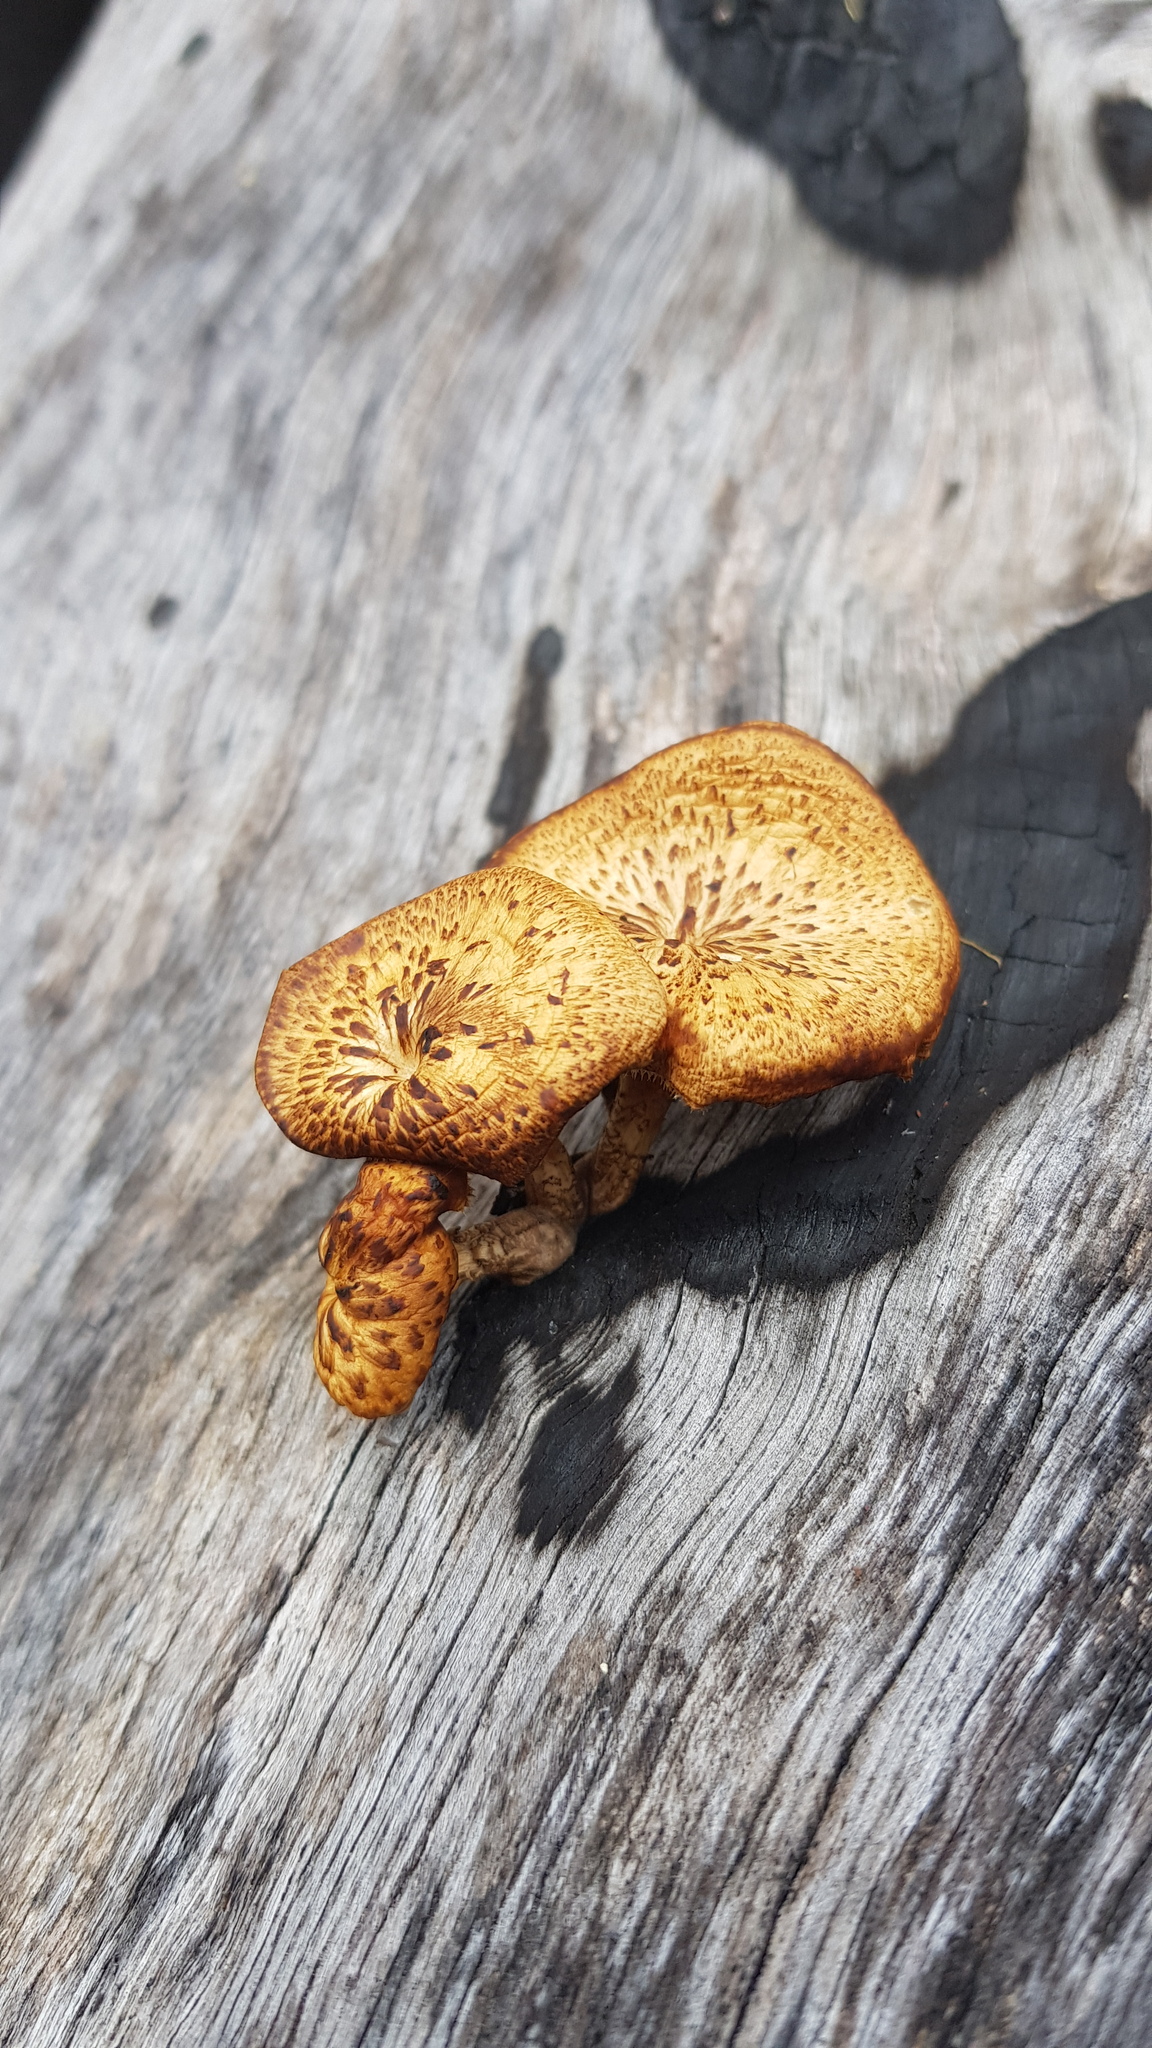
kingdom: Fungi
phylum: Basidiomycota
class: Agaricomycetes
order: Polyporales
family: Polyporaceae
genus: Lentinus
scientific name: Lentinus arcularius
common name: Spring polypore
